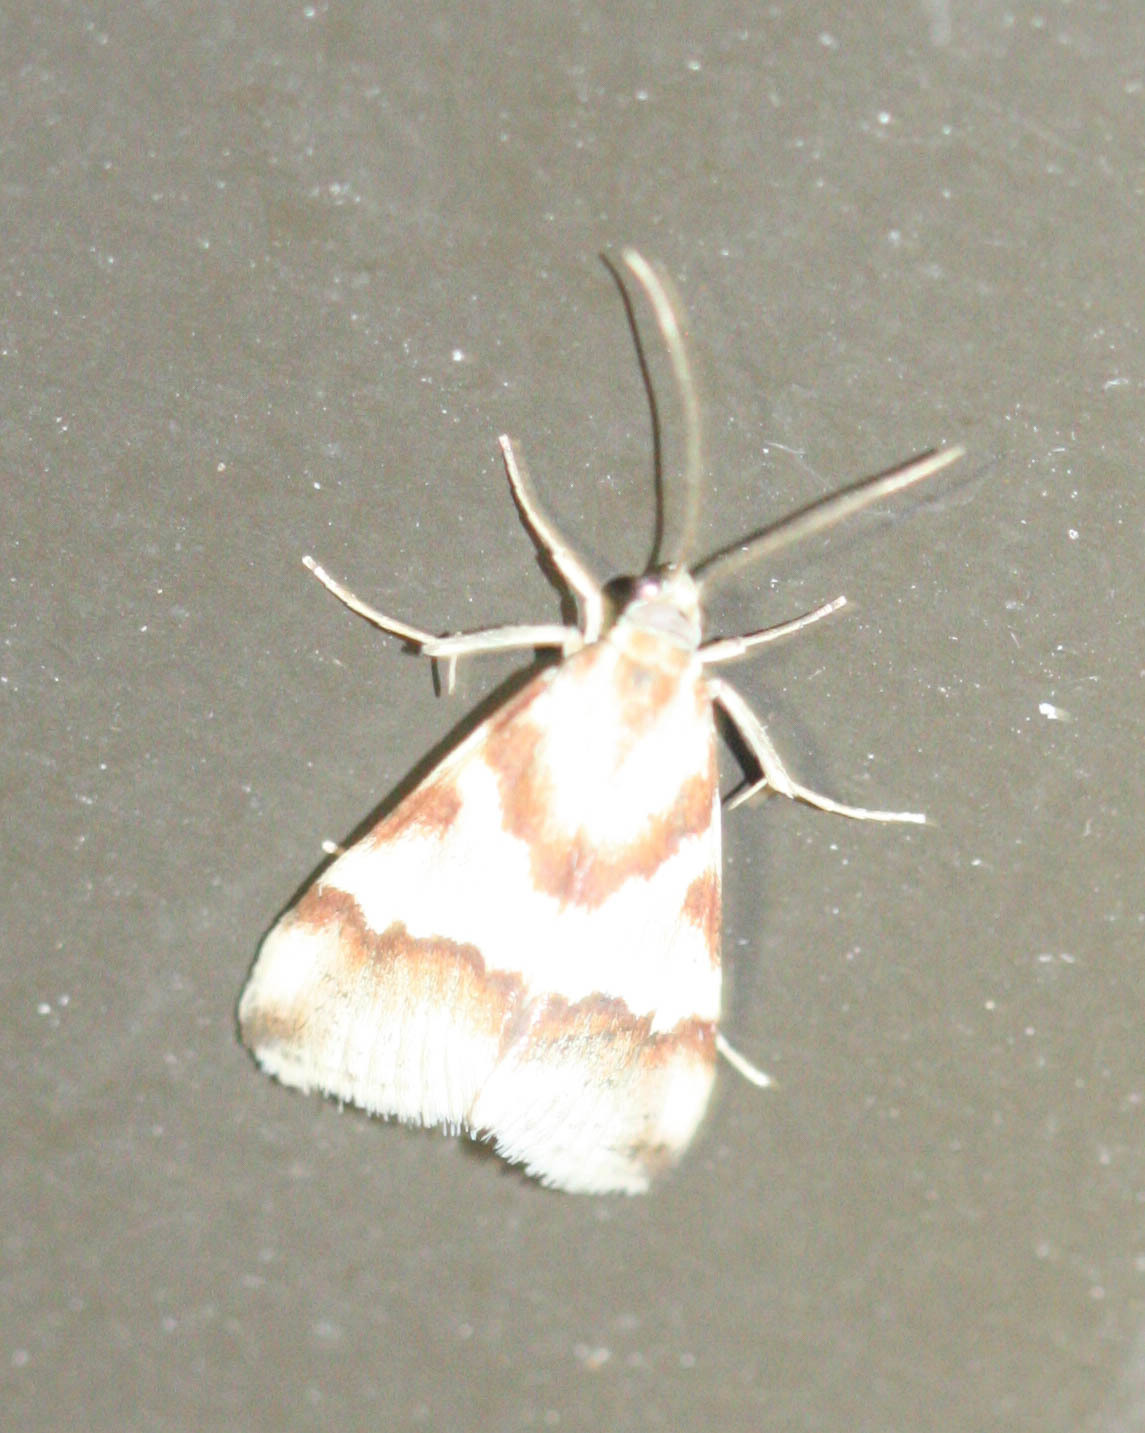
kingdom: Animalia
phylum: Arthropoda
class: Insecta
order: Lepidoptera
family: Crambidae
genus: Noctuelia
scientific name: Noctuelia Mimoschinia rufofascialis
